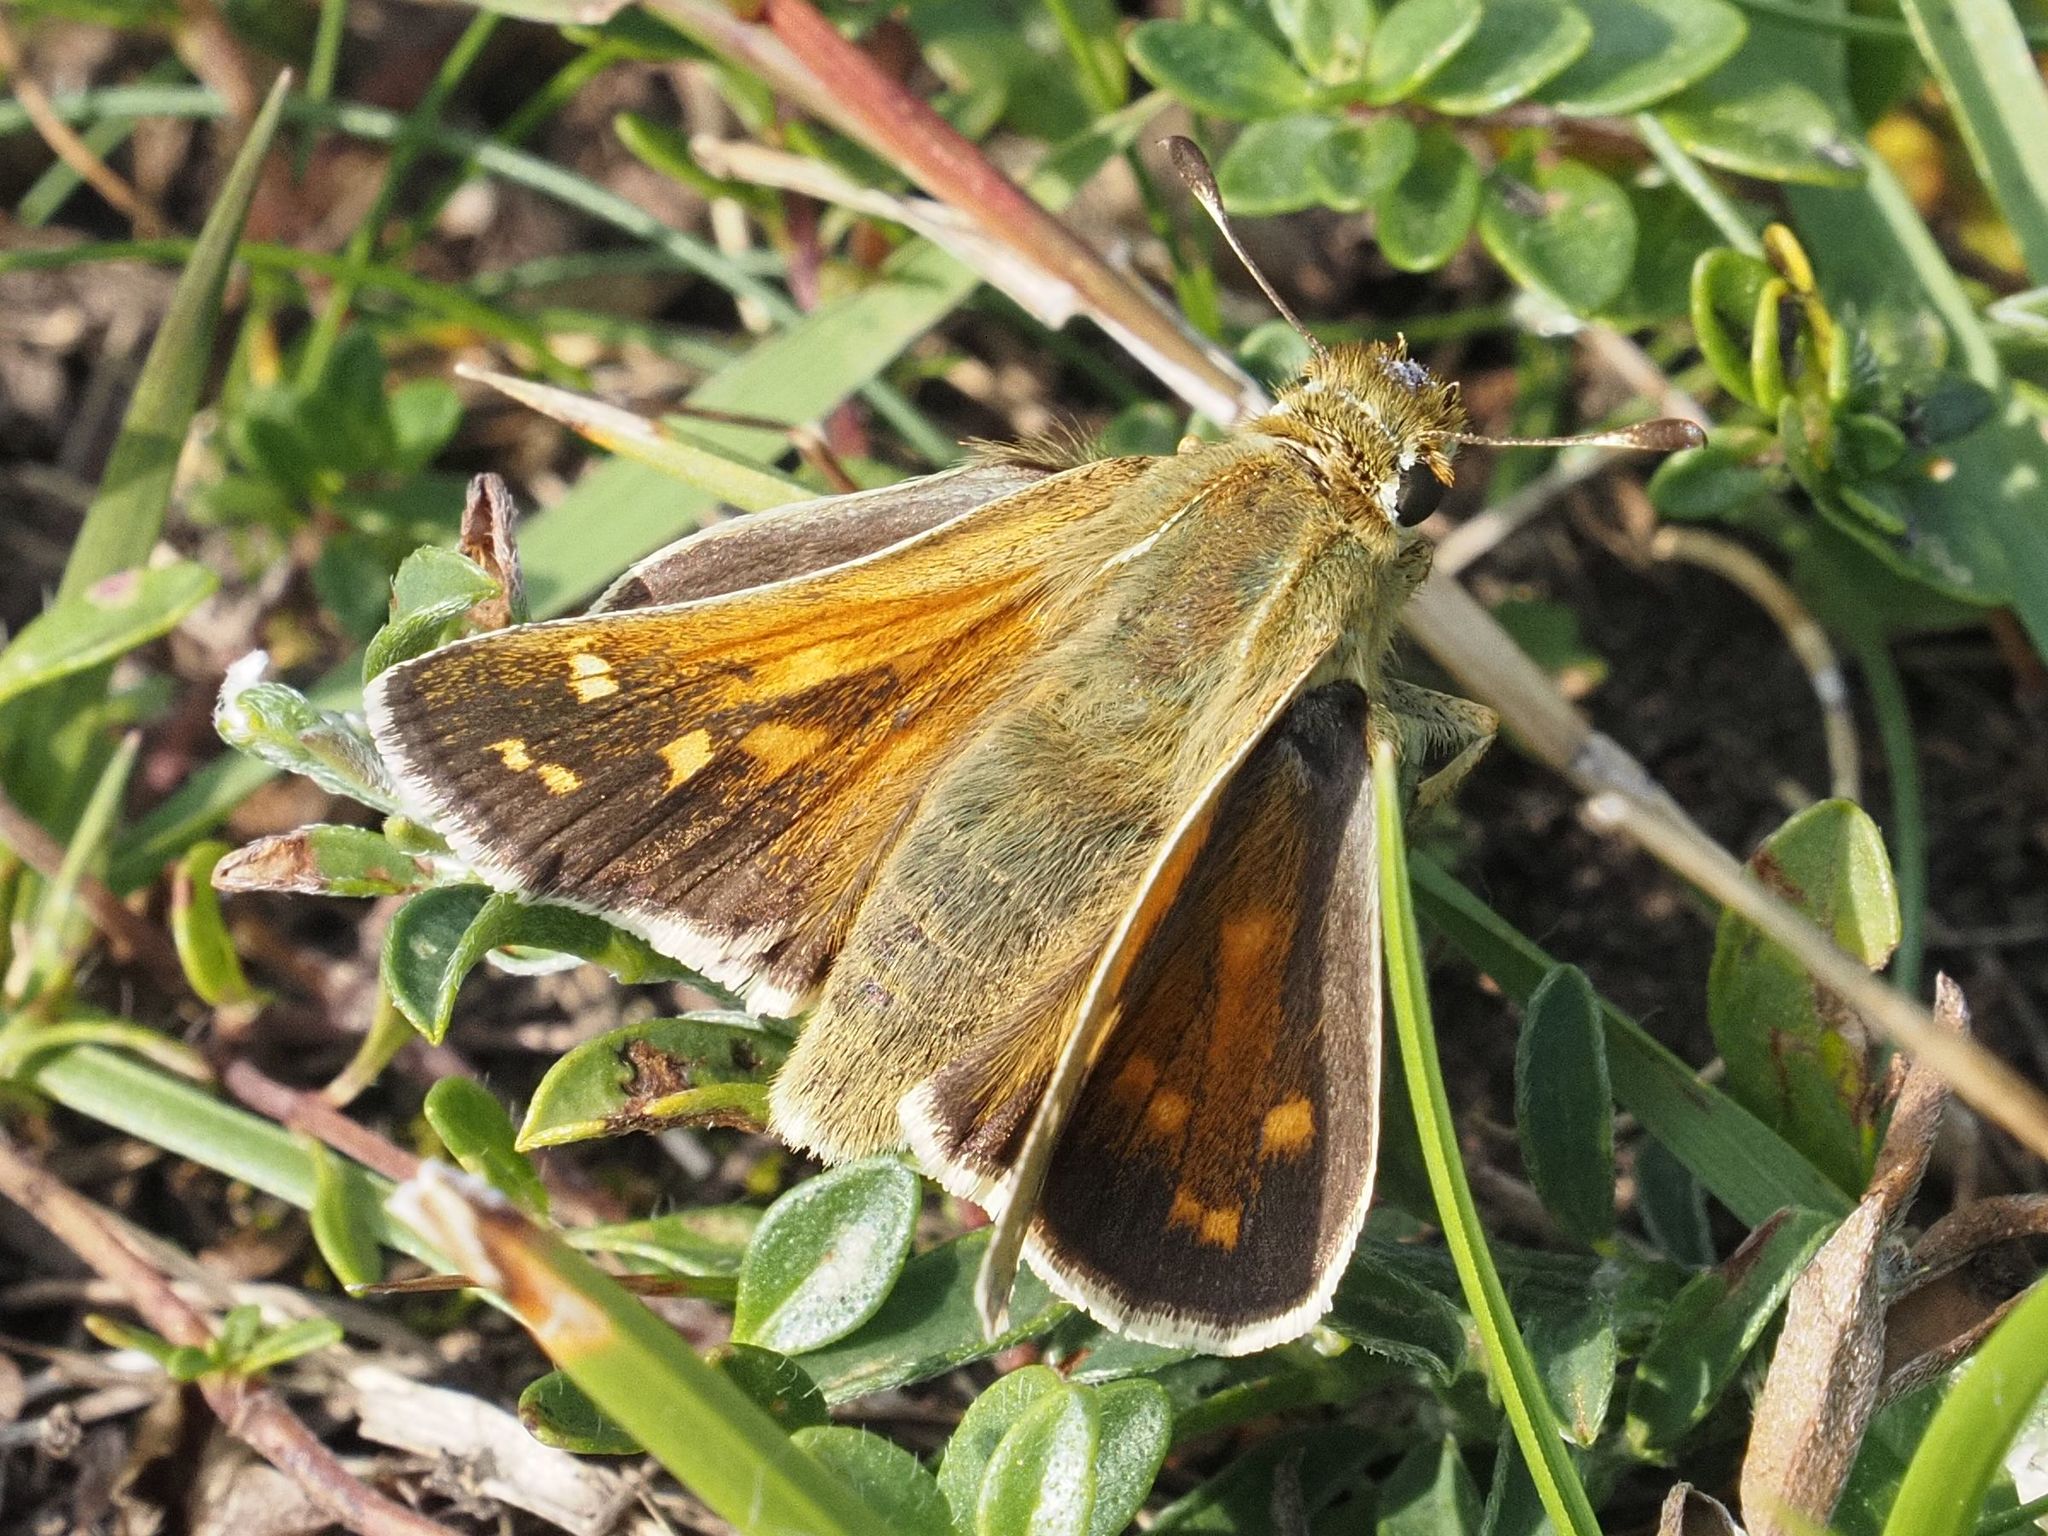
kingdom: Animalia
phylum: Arthropoda
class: Insecta
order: Lepidoptera
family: Hesperiidae
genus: Hesperia
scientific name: Hesperia comma
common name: Common branded skipper
